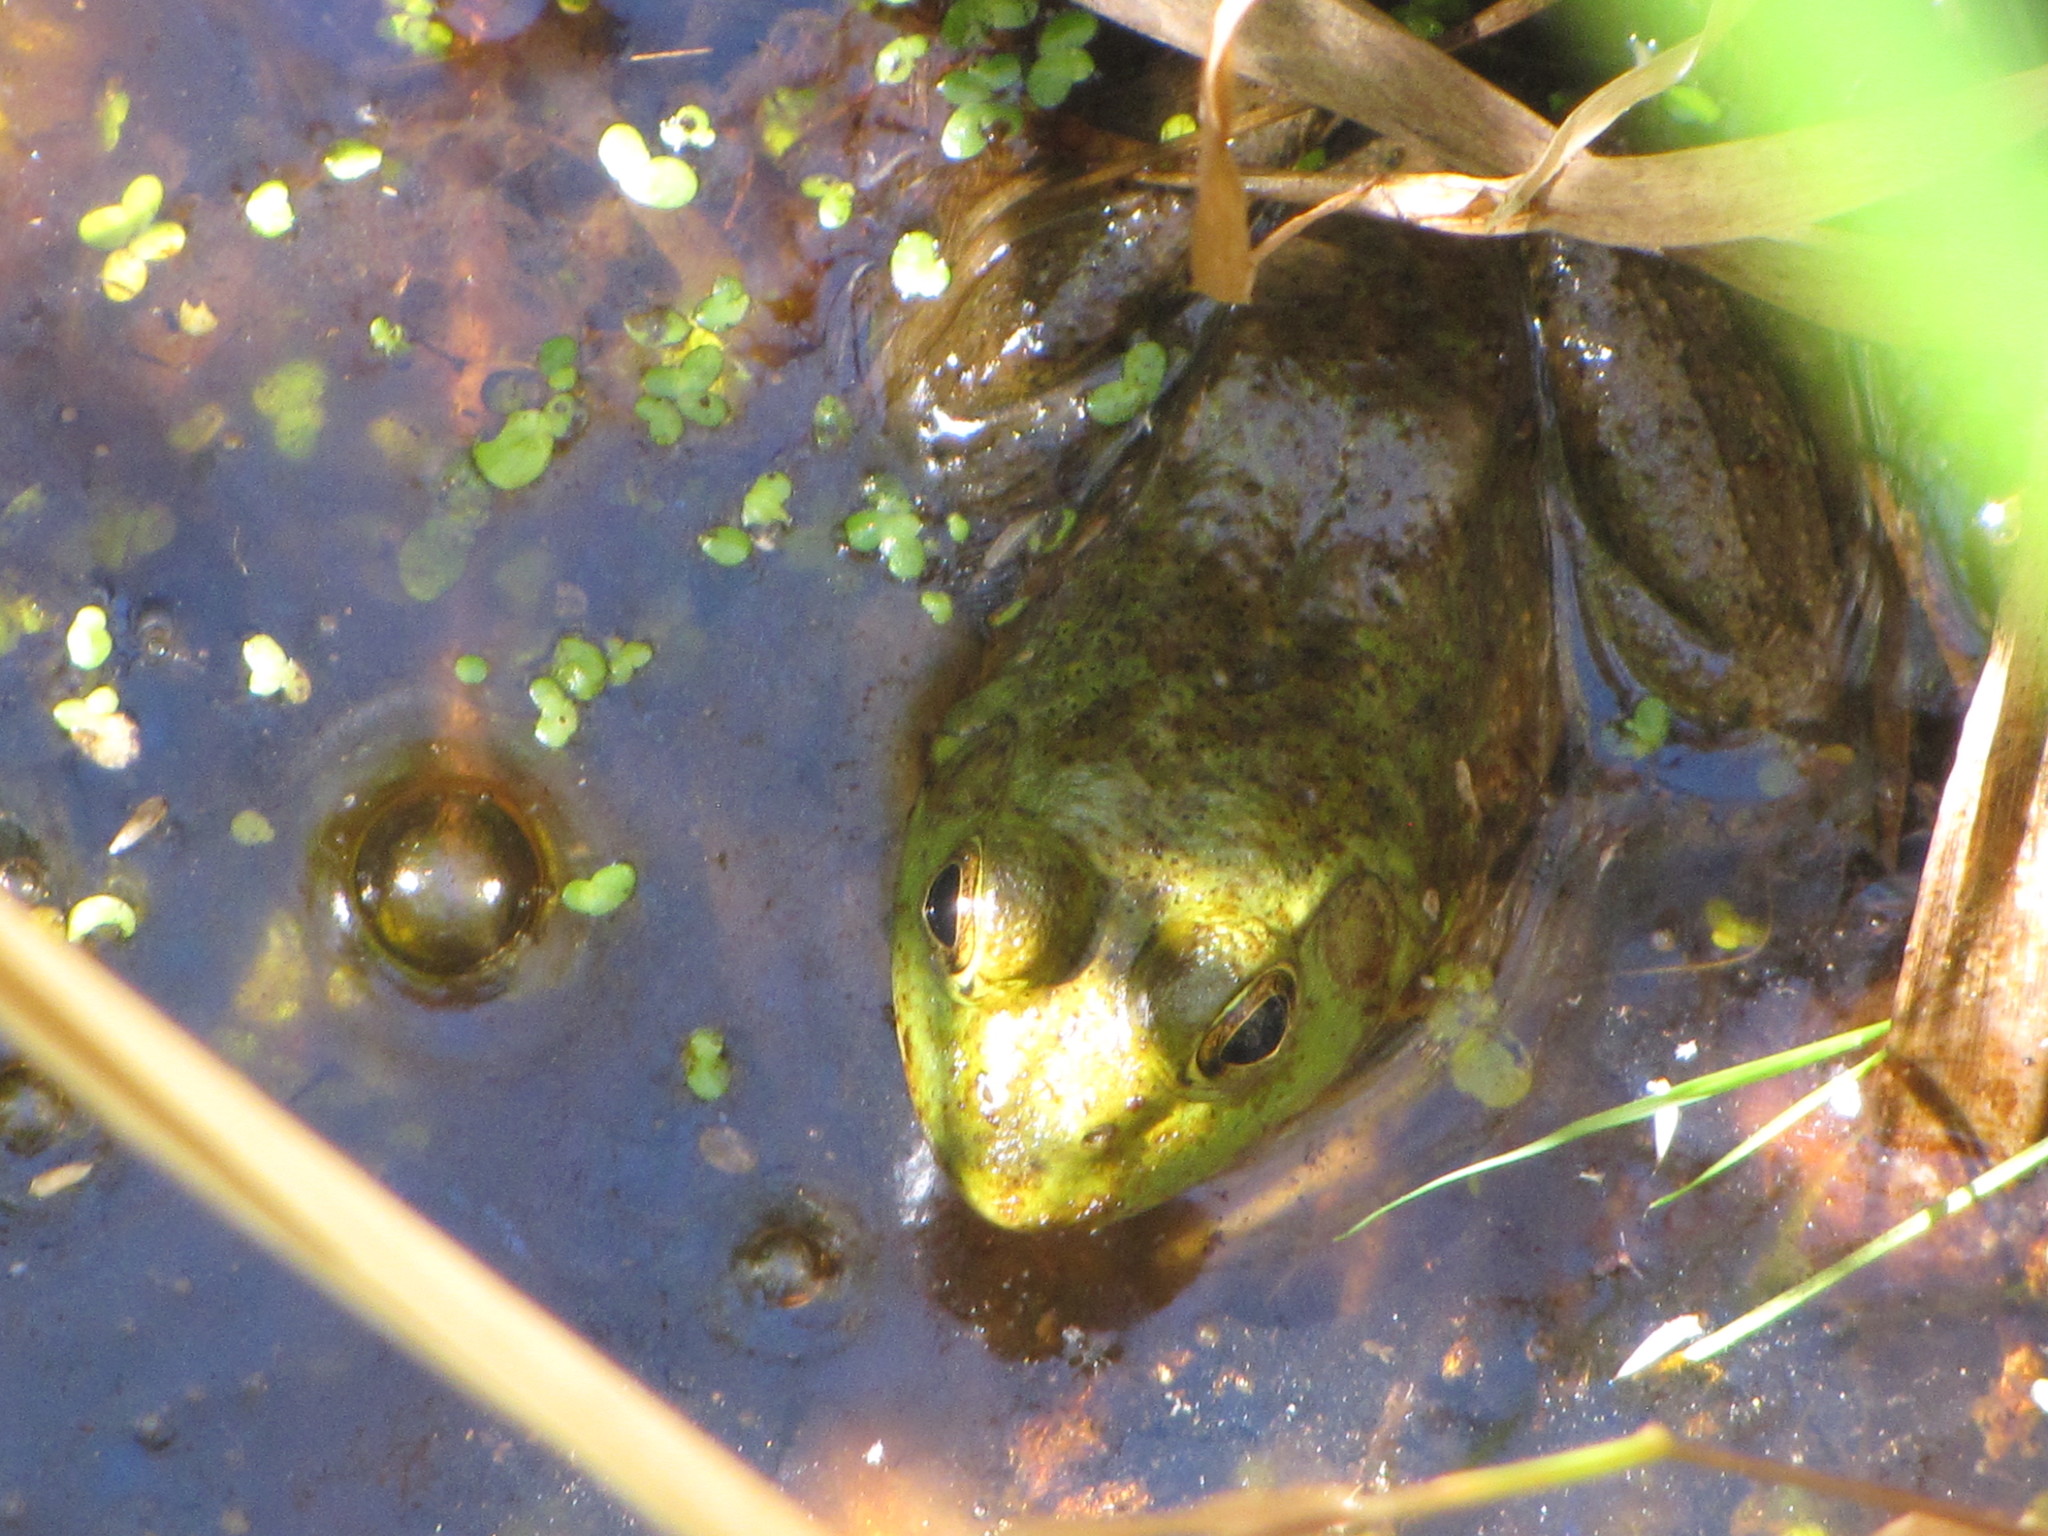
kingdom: Animalia
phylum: Chordata
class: Amphibia
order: Anura
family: Ranidae
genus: Lithobates
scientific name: Lithobates catesbeianus
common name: American bullfrog
